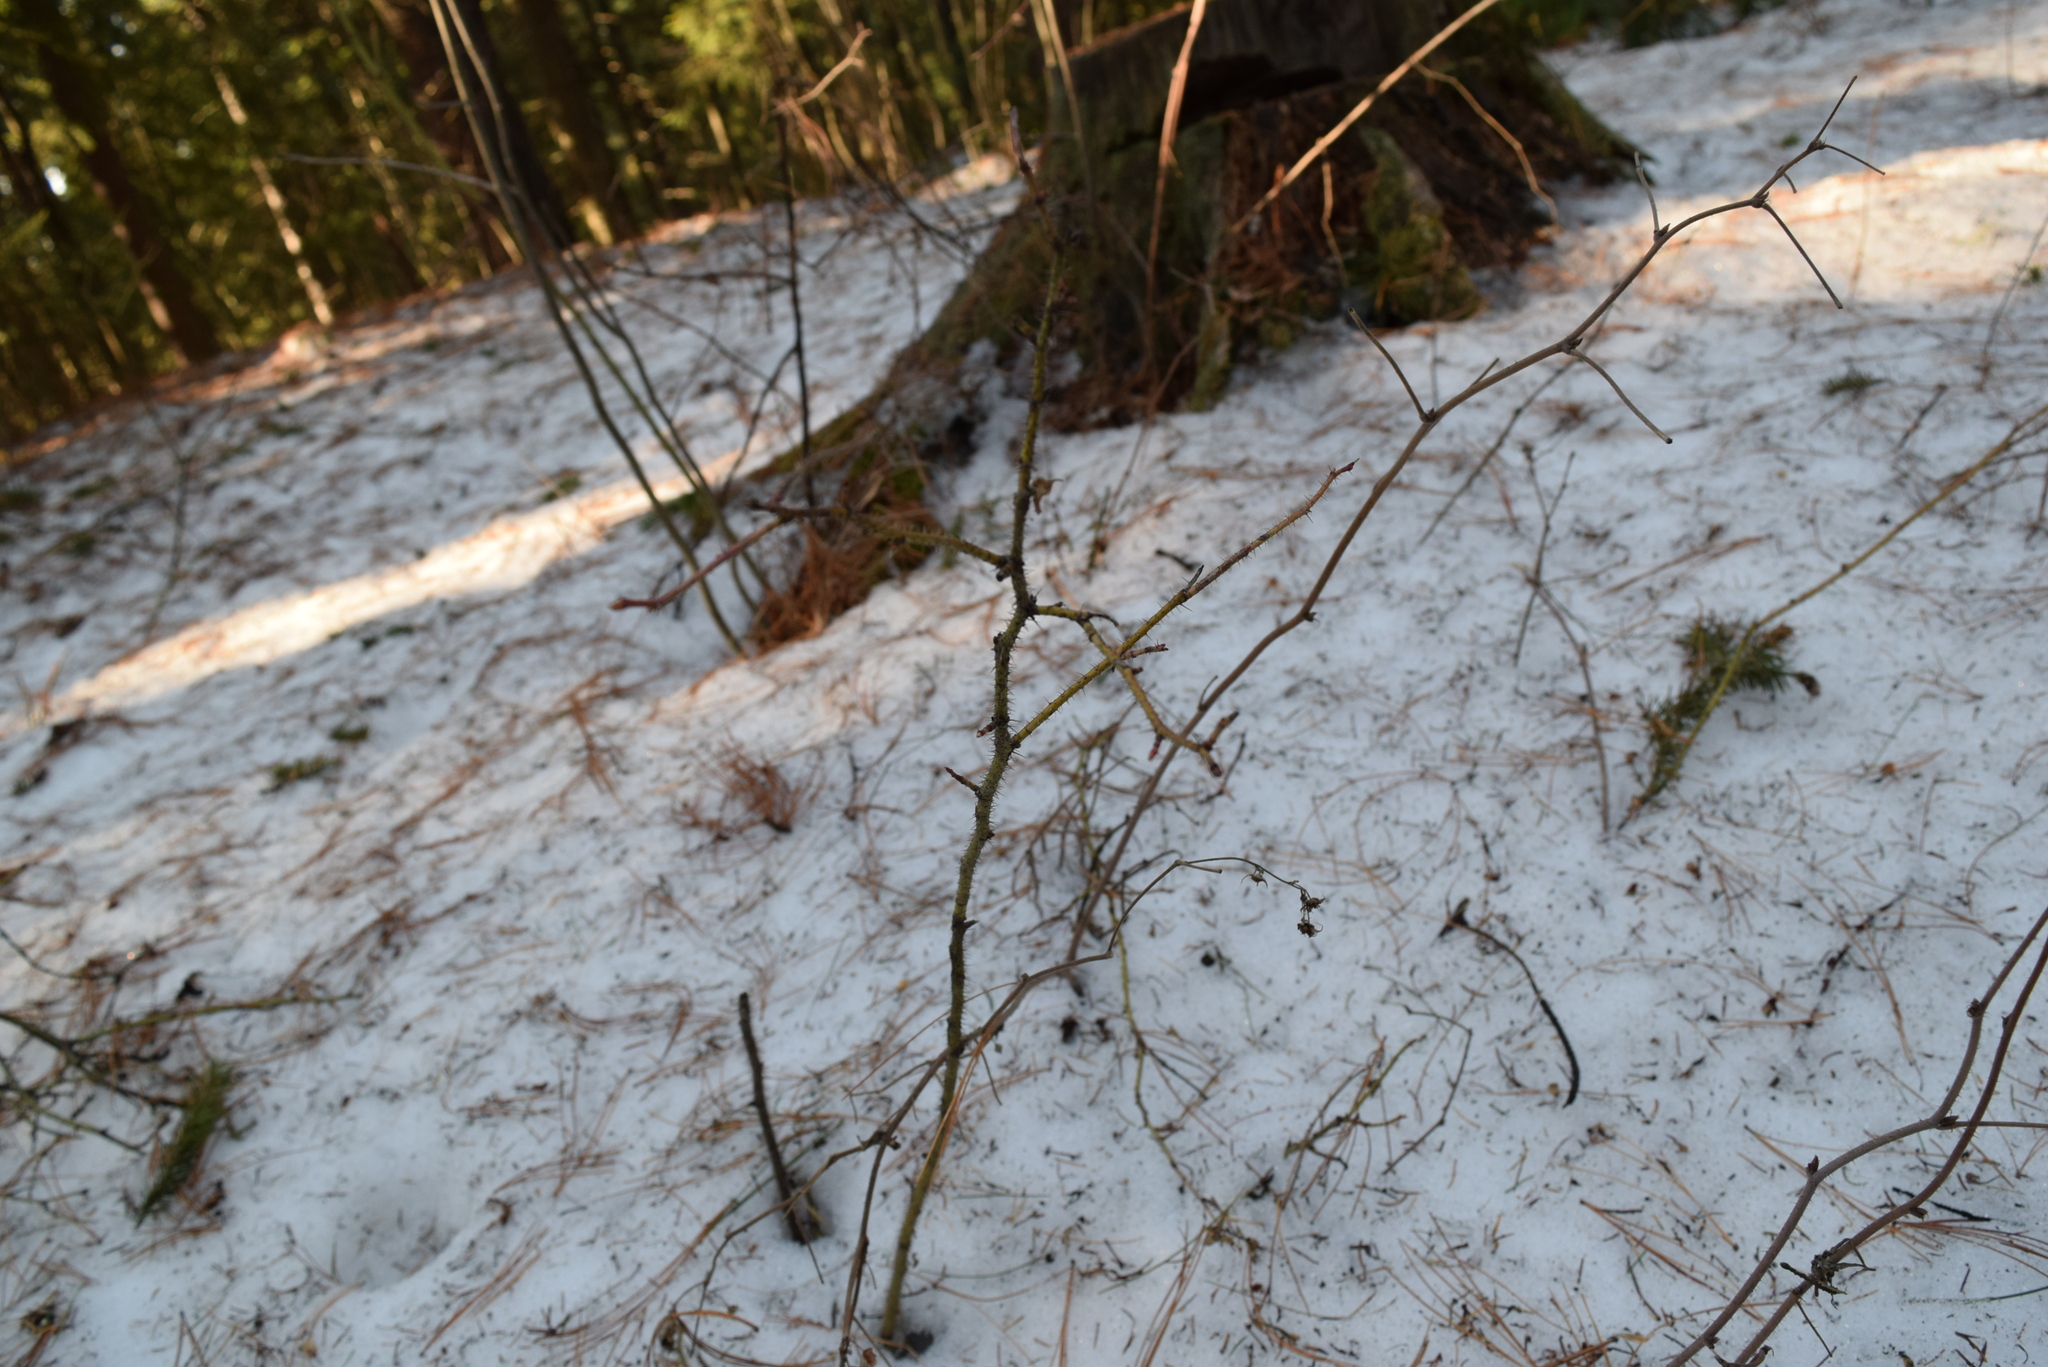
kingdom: Plantae
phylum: Tracheophyta
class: Magnoliopsida
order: Rosales
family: Rosaceae
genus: Rosa
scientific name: Rosa acicularis
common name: Prickly rose
